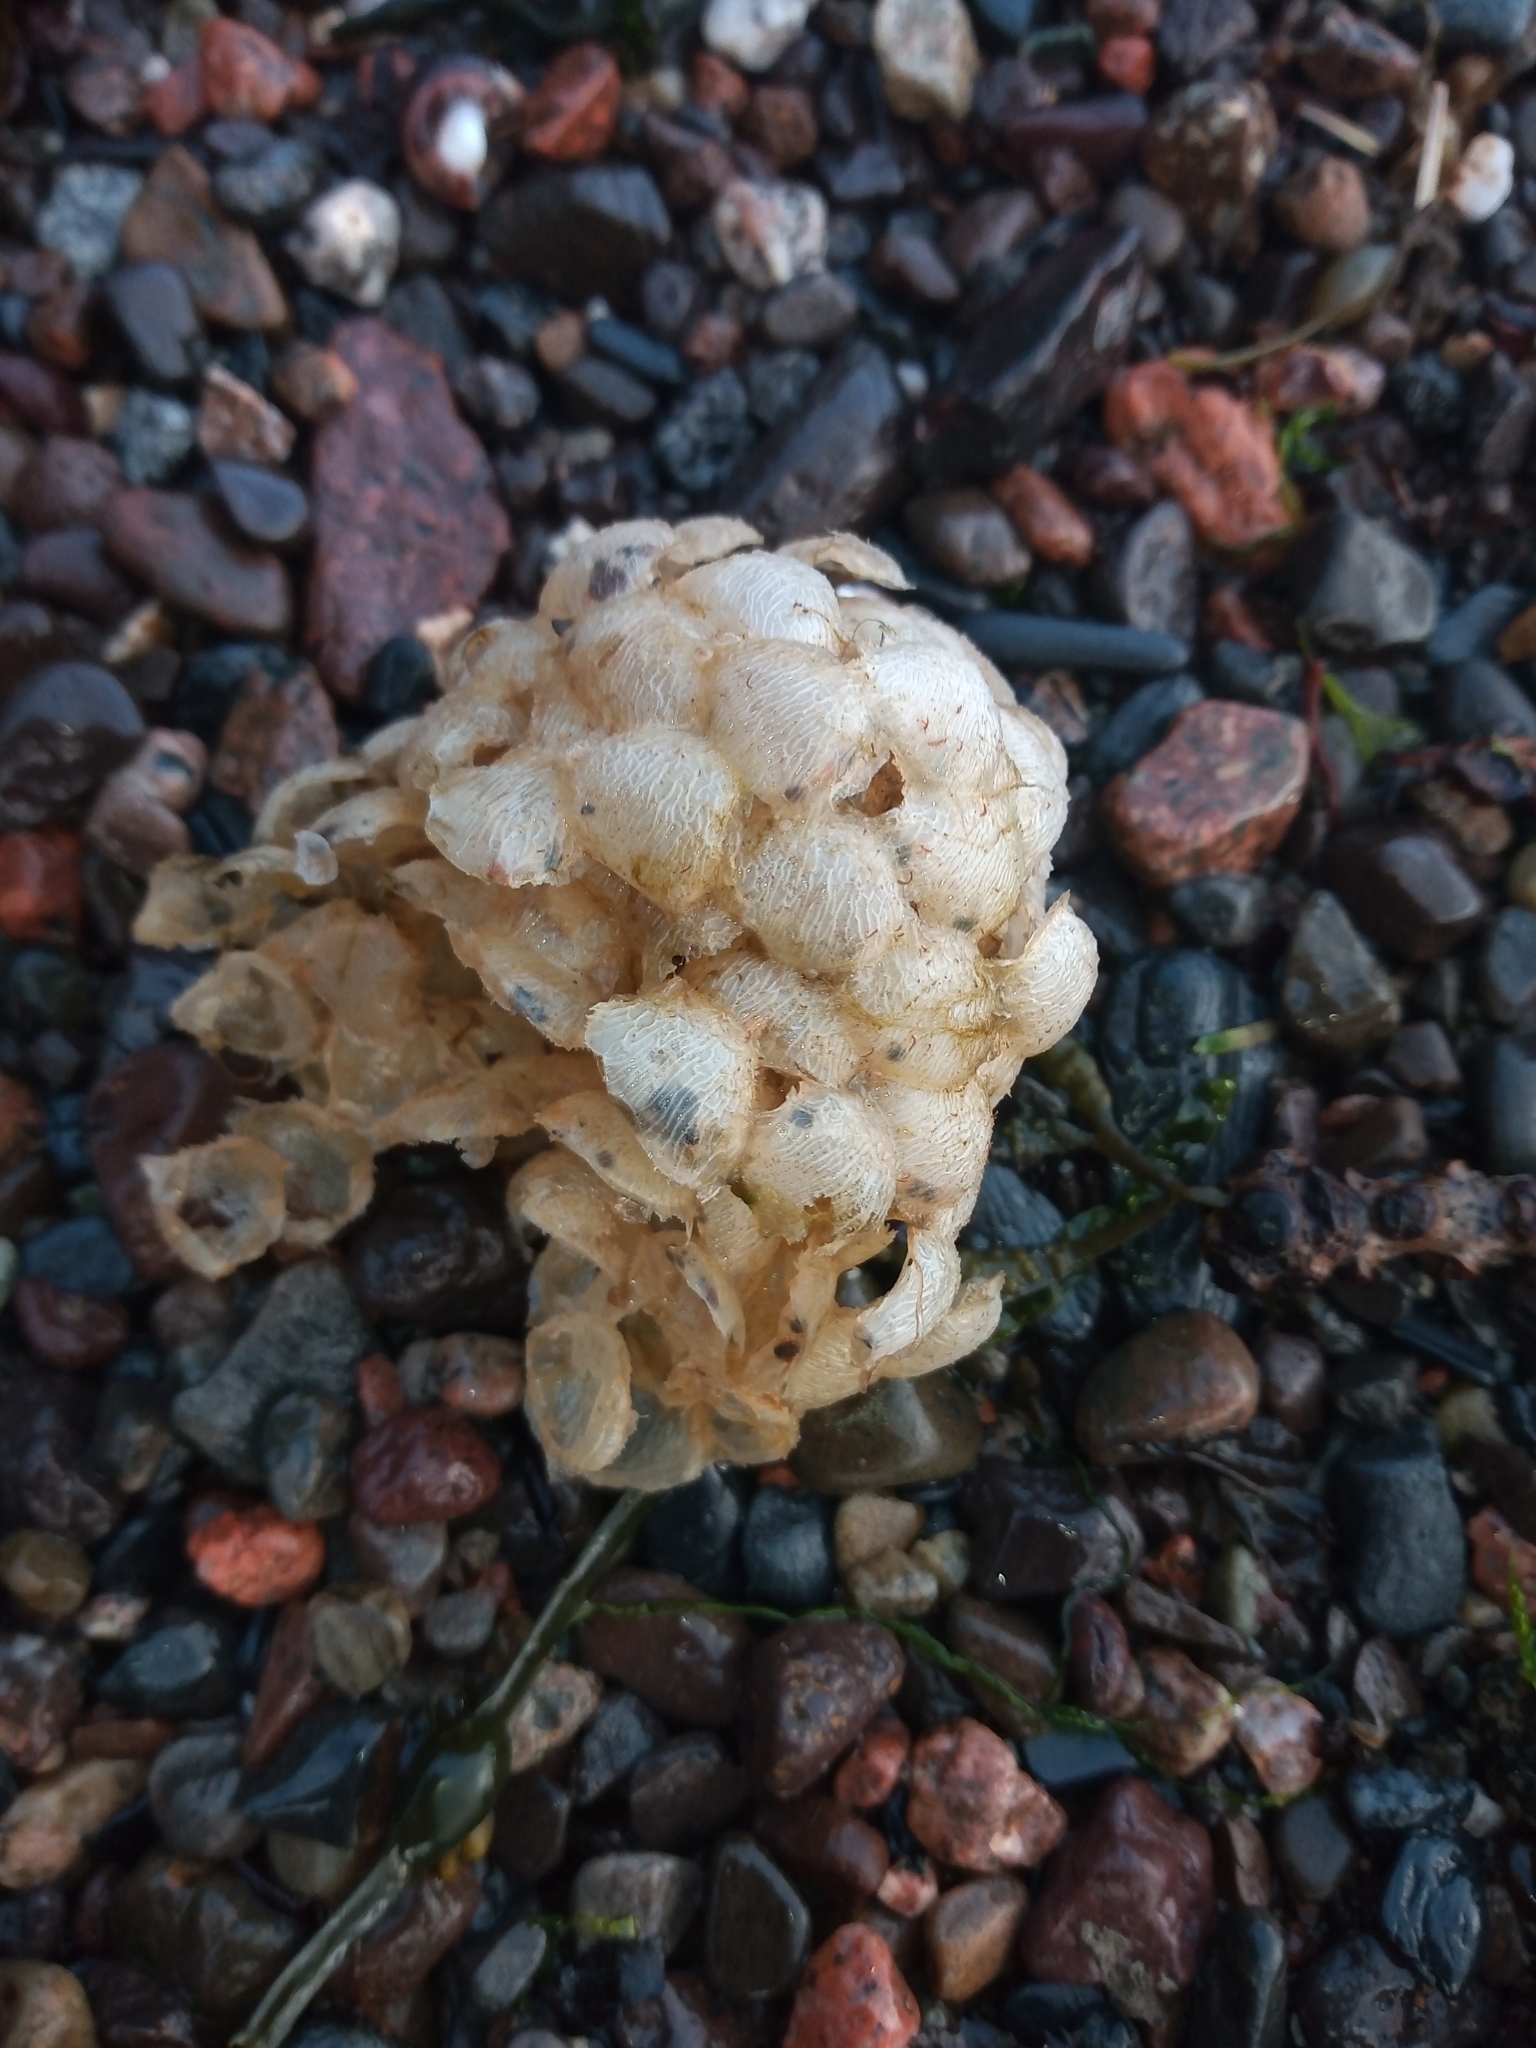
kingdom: Animalia
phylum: Mollusca
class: Gastropoda
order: Neogastropoda
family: Buccinidae
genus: Buccinum
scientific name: Buccinum undatum
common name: Common whelk
